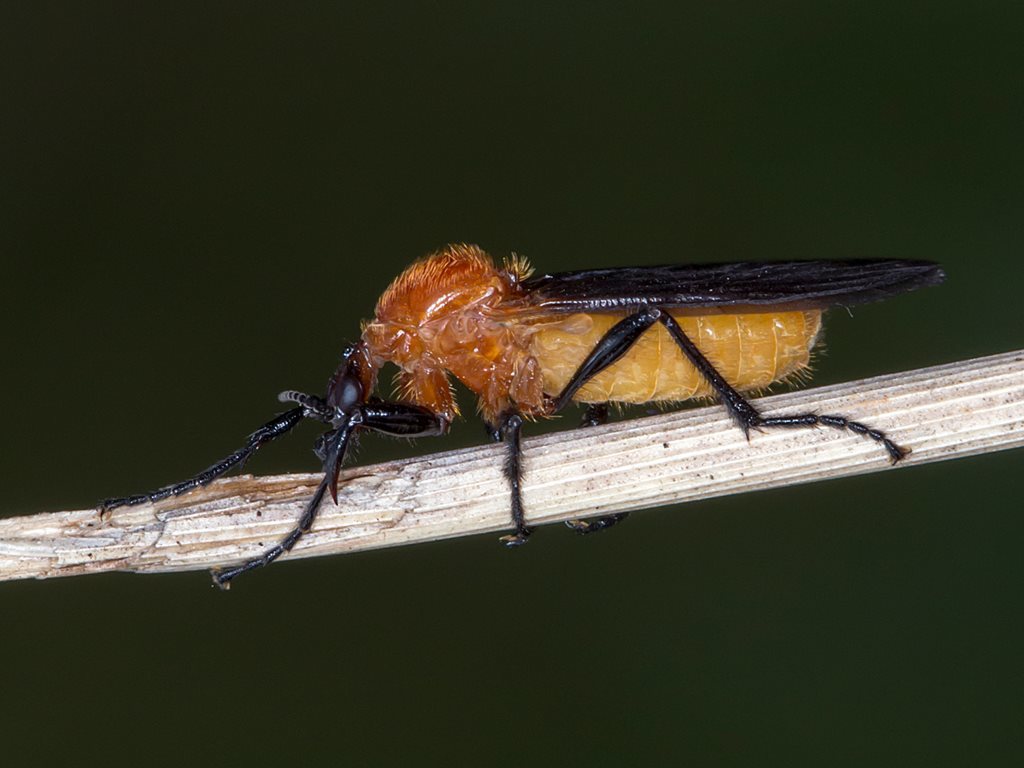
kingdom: Animalia
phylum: Arthropoda
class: Insecta
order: Diptera
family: Bibionidae
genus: Bibio
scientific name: Bibio imitator
